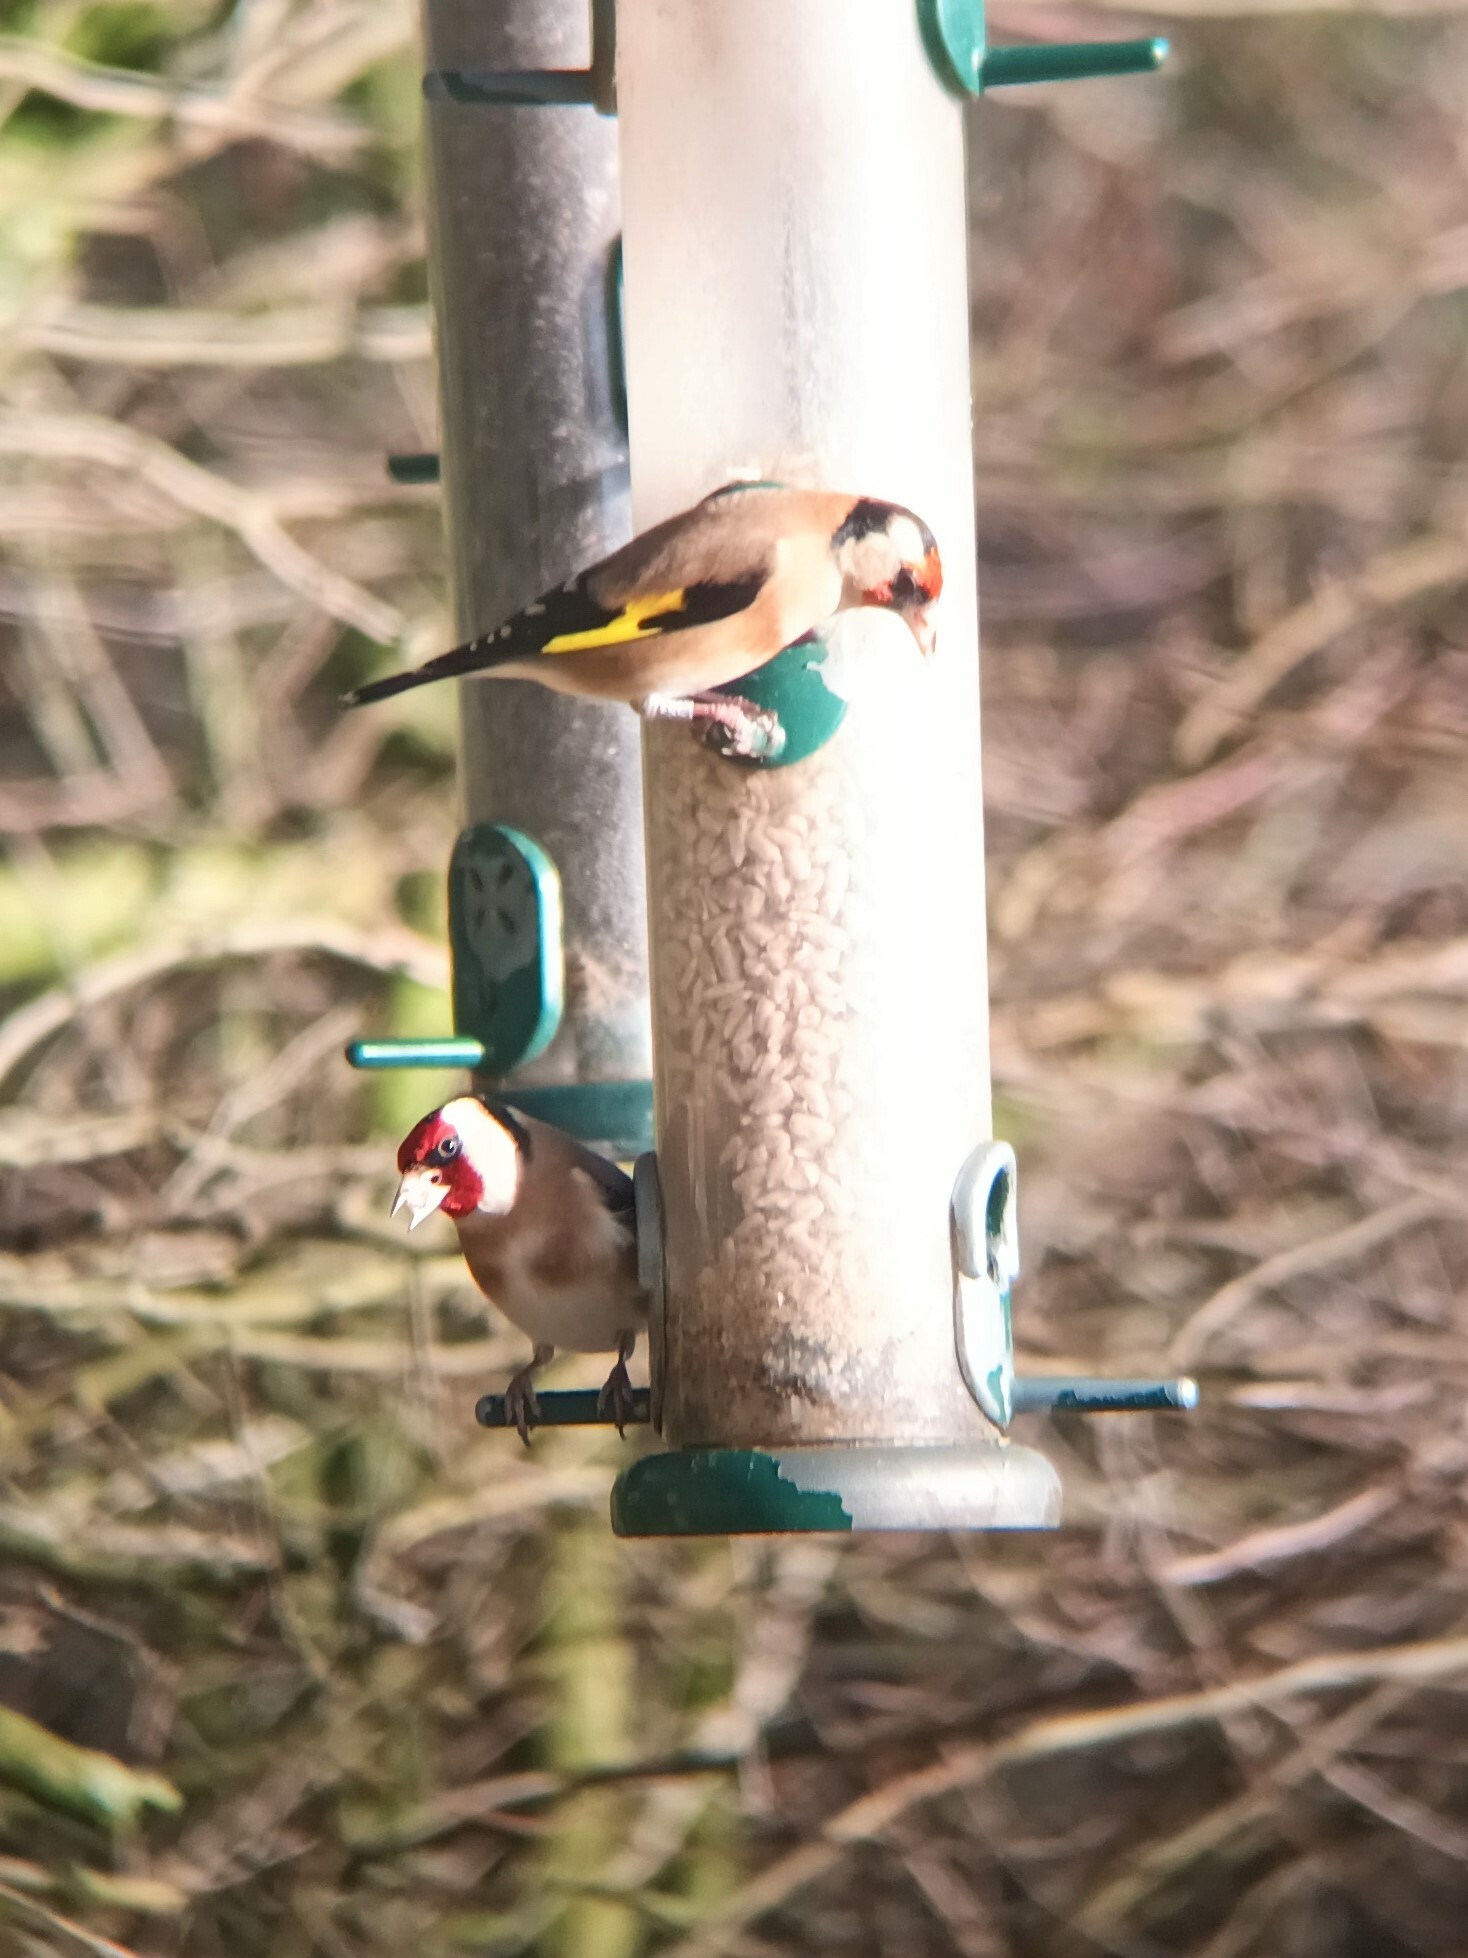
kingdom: Animalia
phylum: Chordata
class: Aves
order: Passeriformes
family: Fringillidae
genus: Carduelis
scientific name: Carduelis carduelis
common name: European goldfinch
